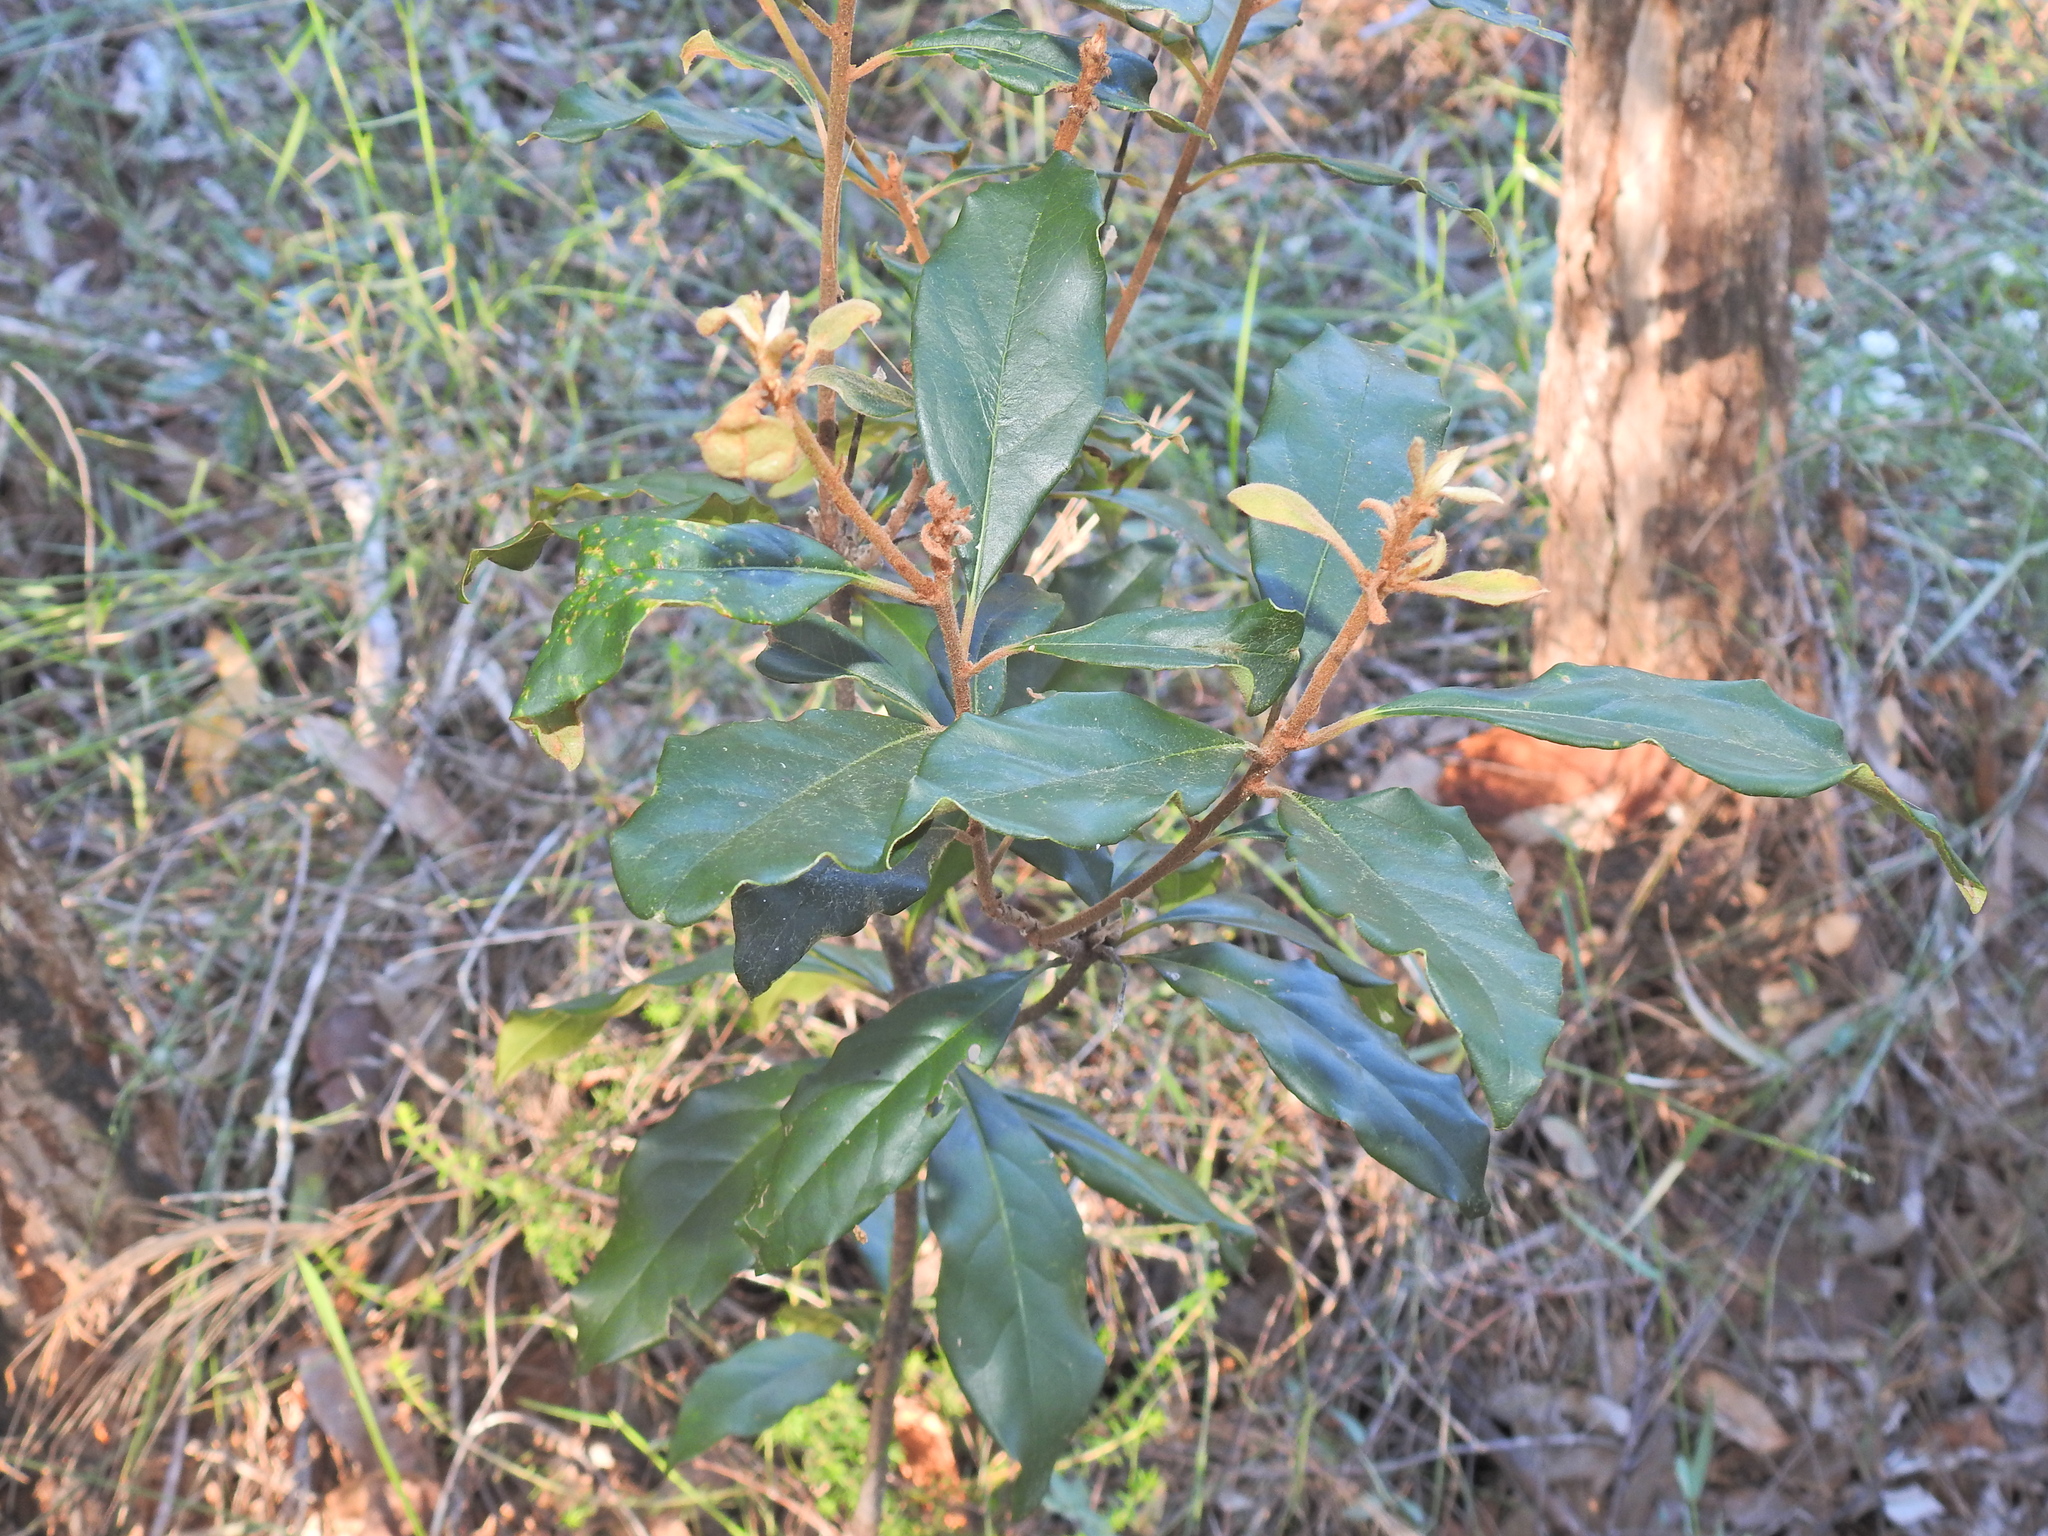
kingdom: Plantae
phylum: Tracheophyta
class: Magnoliopsida
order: Apiales
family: Pittosporaceae
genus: Pittosporum
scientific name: Pittosporum revolutum
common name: Brisbane-laurel
